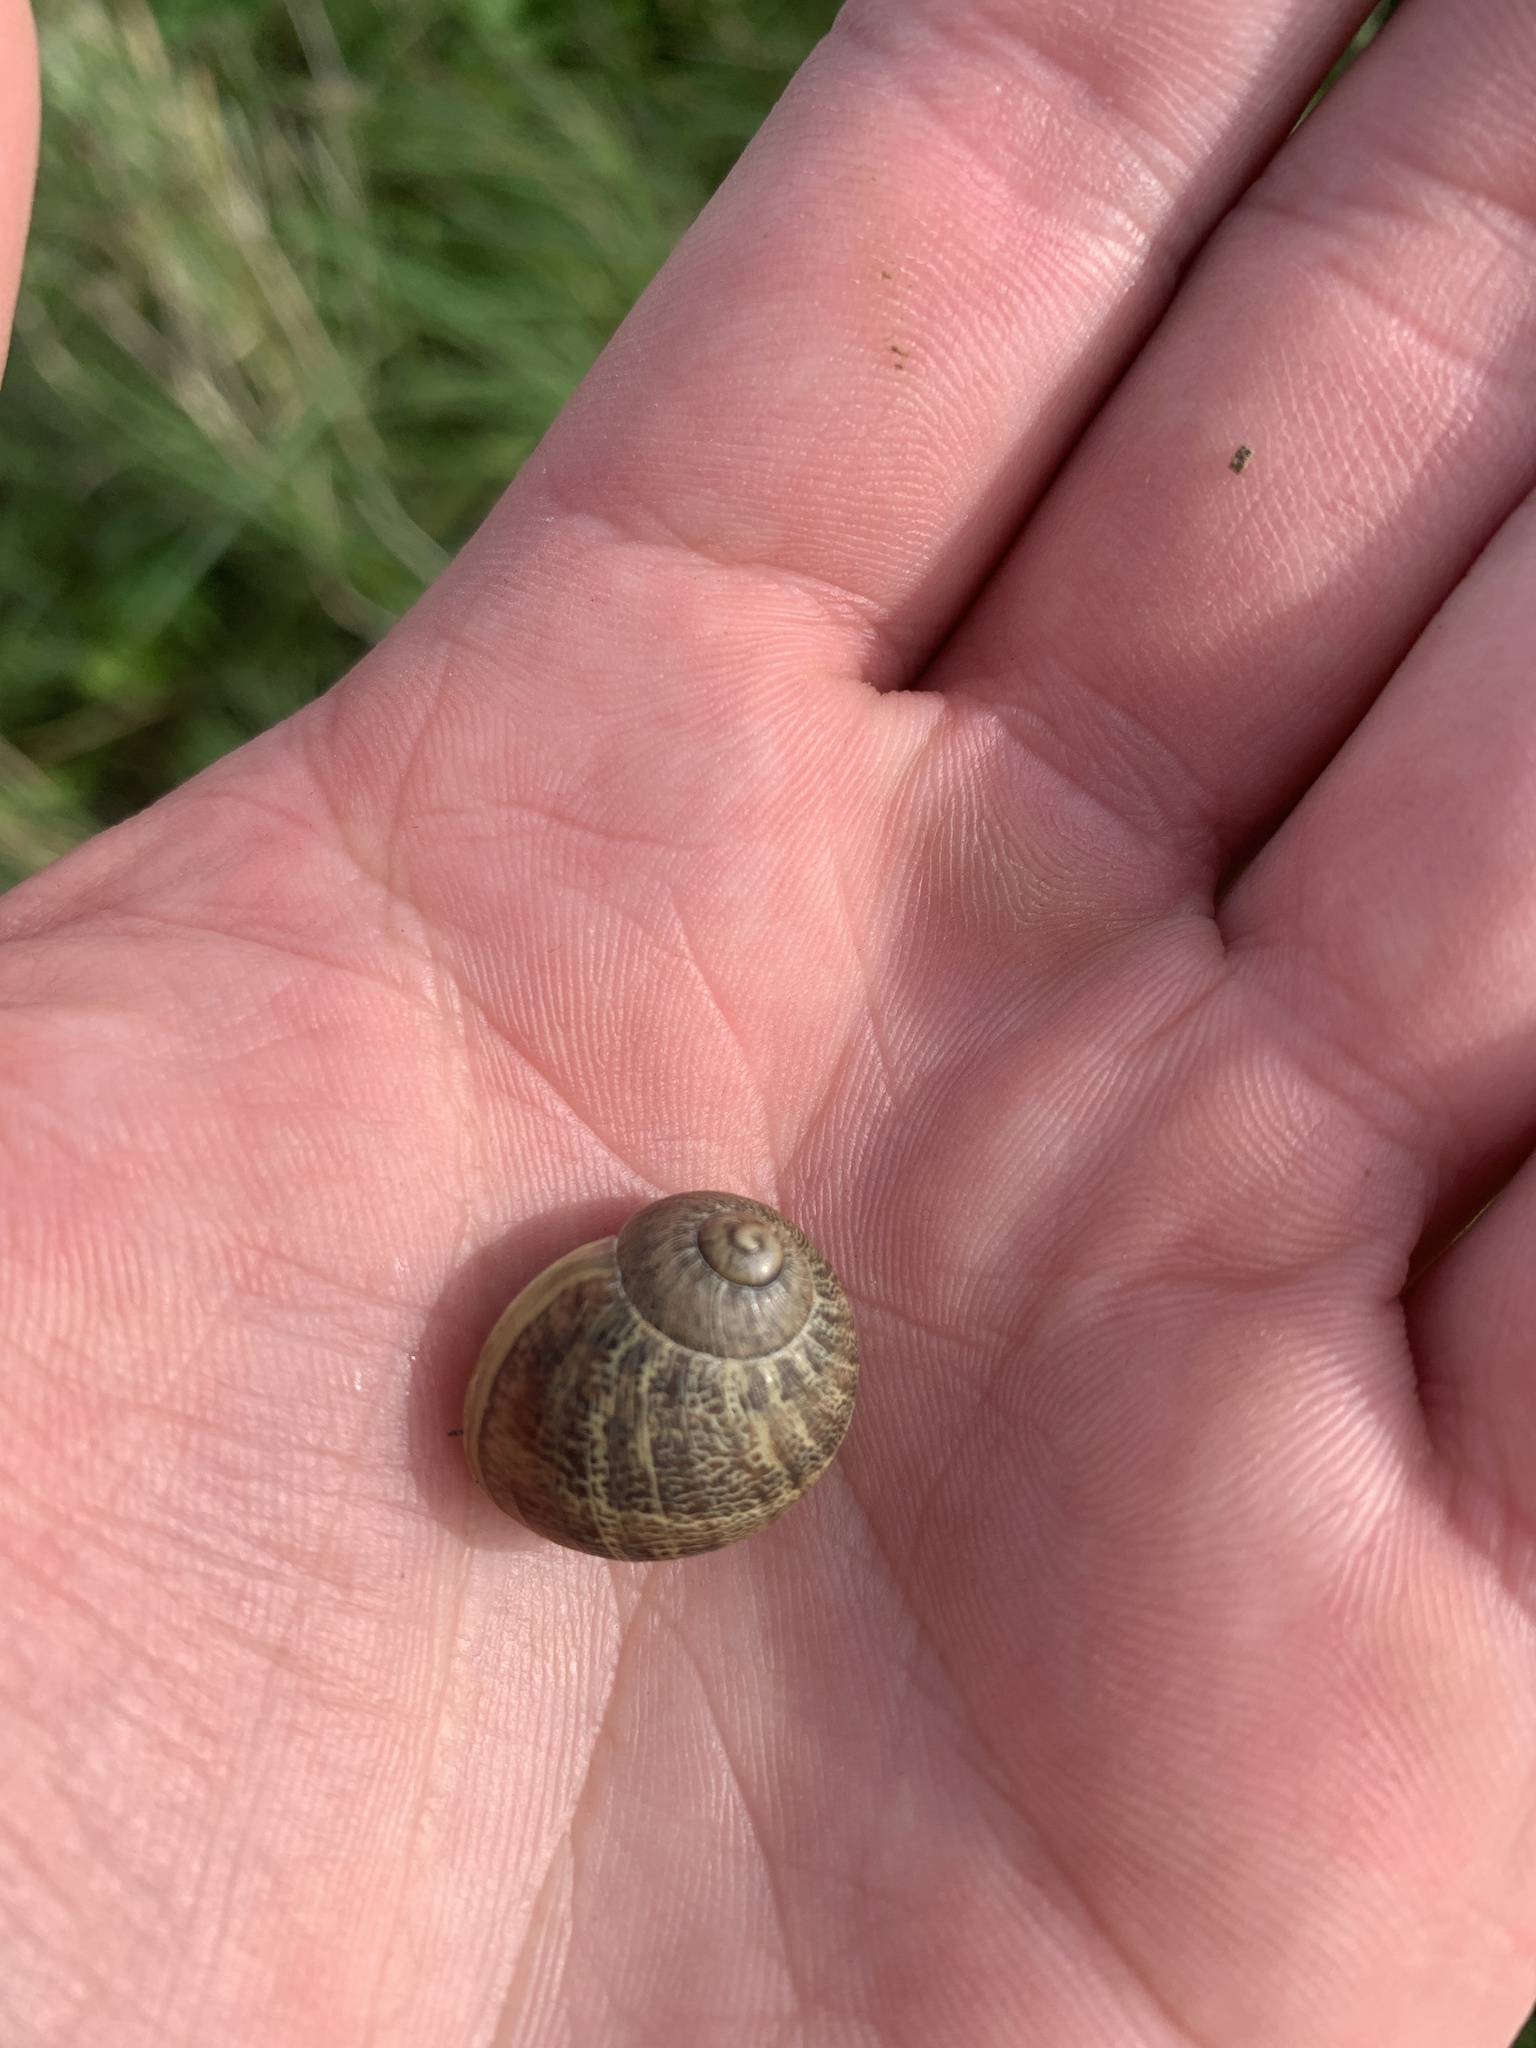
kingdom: Animalia
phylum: Mollusca
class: Gastropoda
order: Stylommatophora
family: Helicidae
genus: Cornu
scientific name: Cornu aspersum
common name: Brown garden snail
